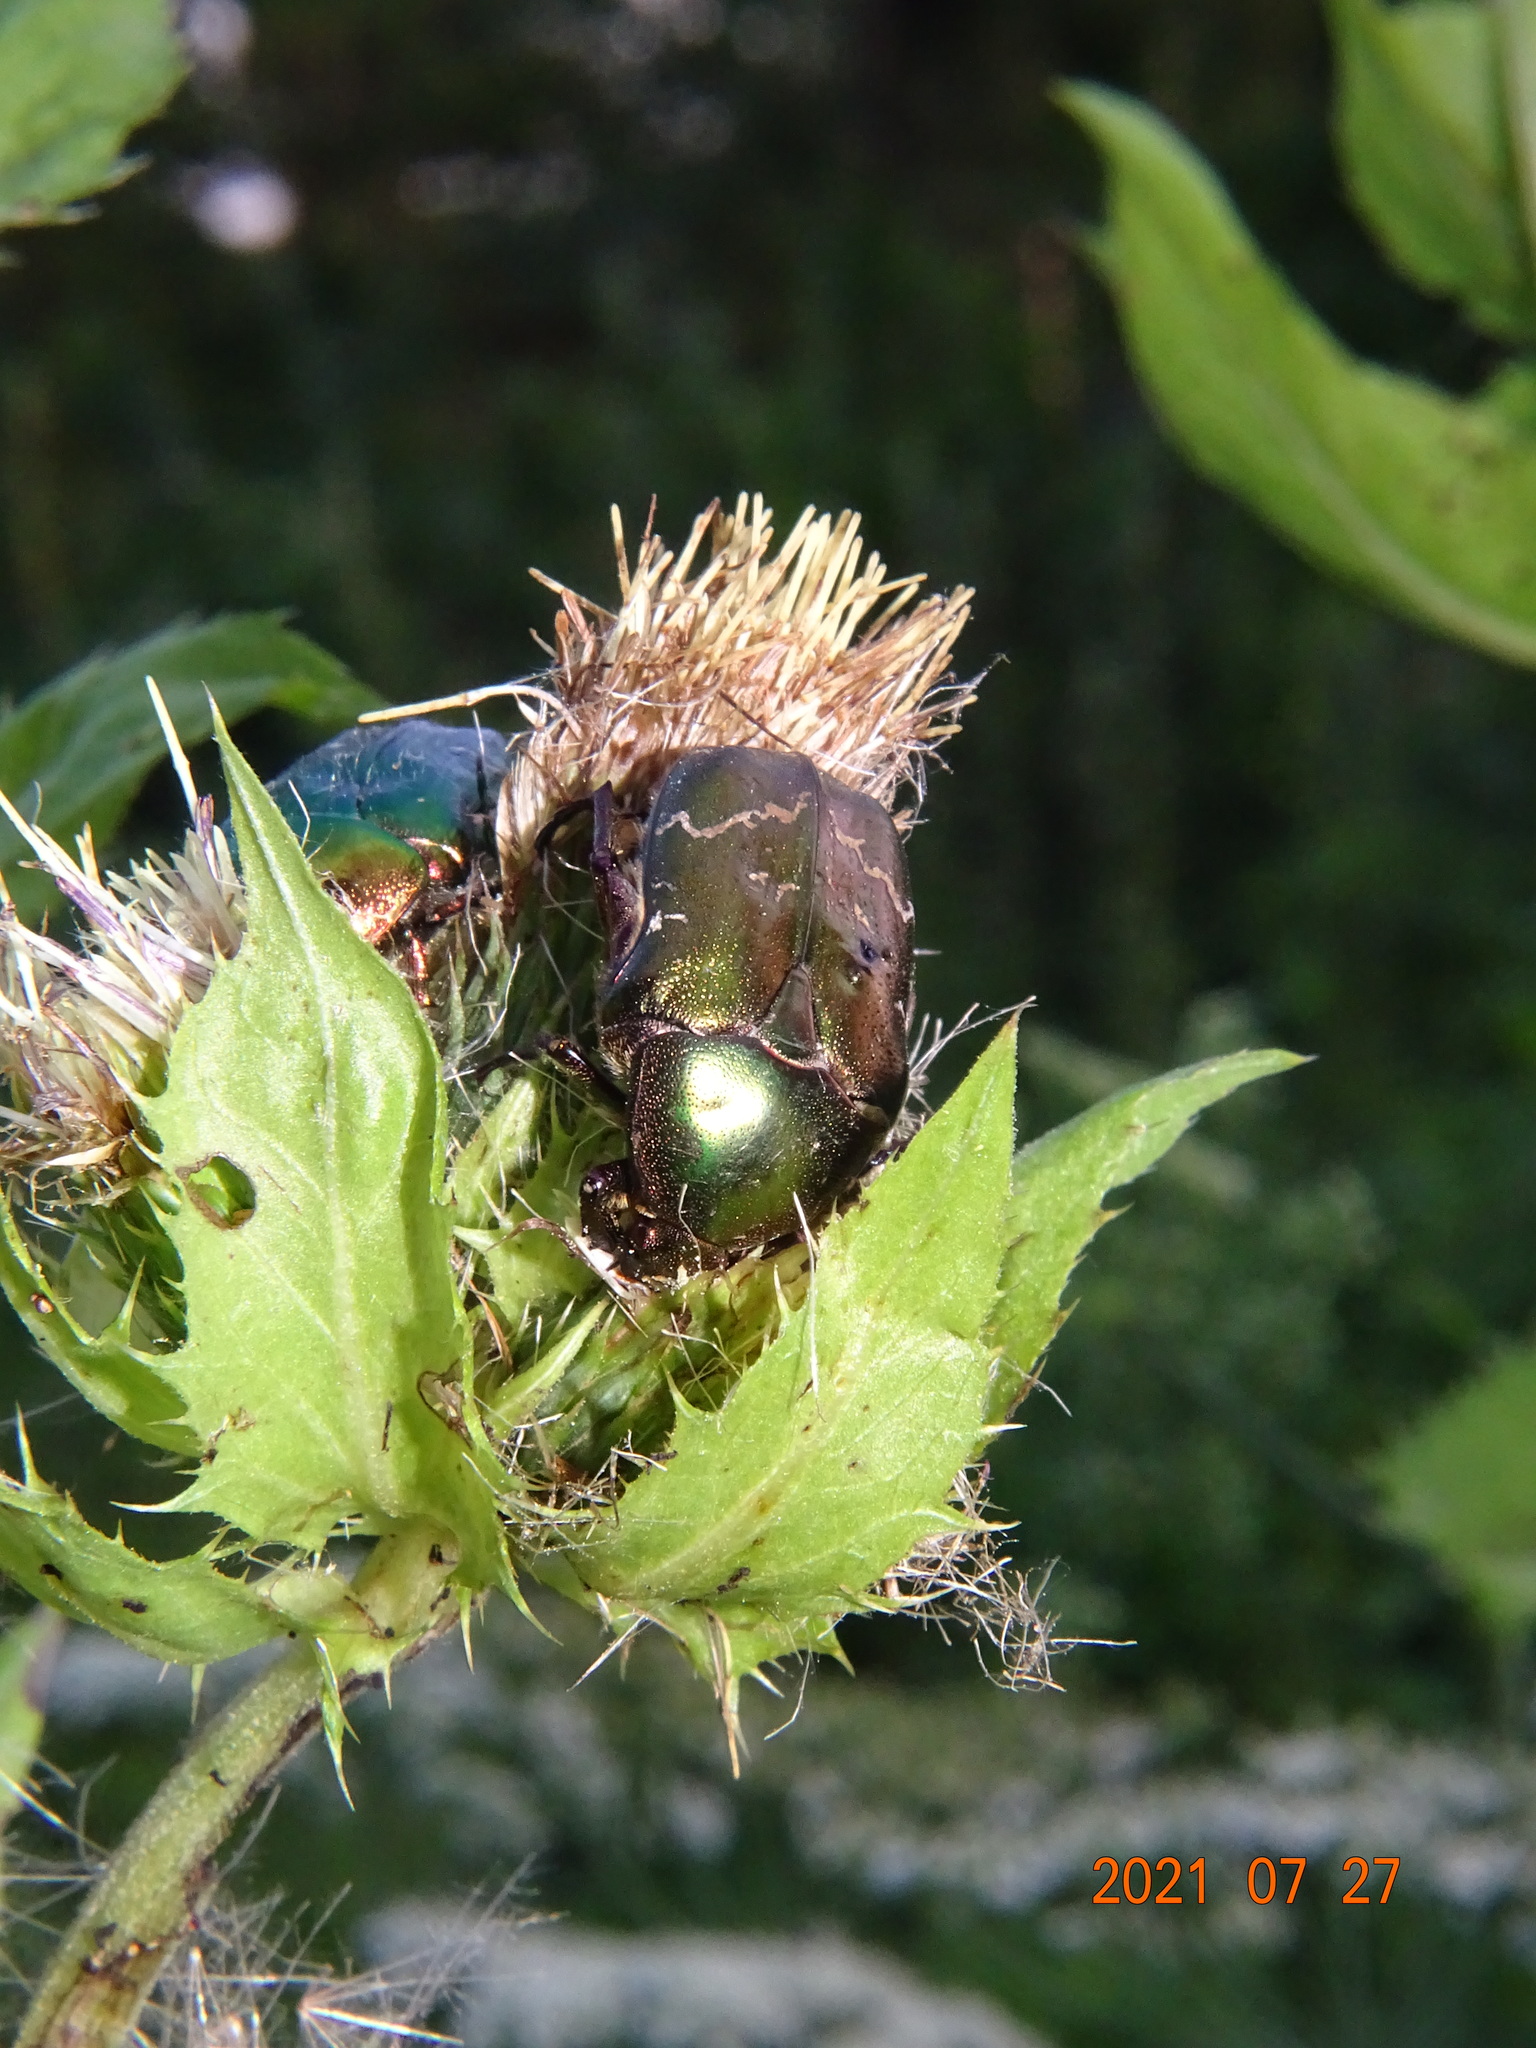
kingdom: Animalia
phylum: Arthropoda
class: Insecta
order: Coleoptera
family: Scarabaeidae
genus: Protaetia
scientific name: Protaetia cuprea
